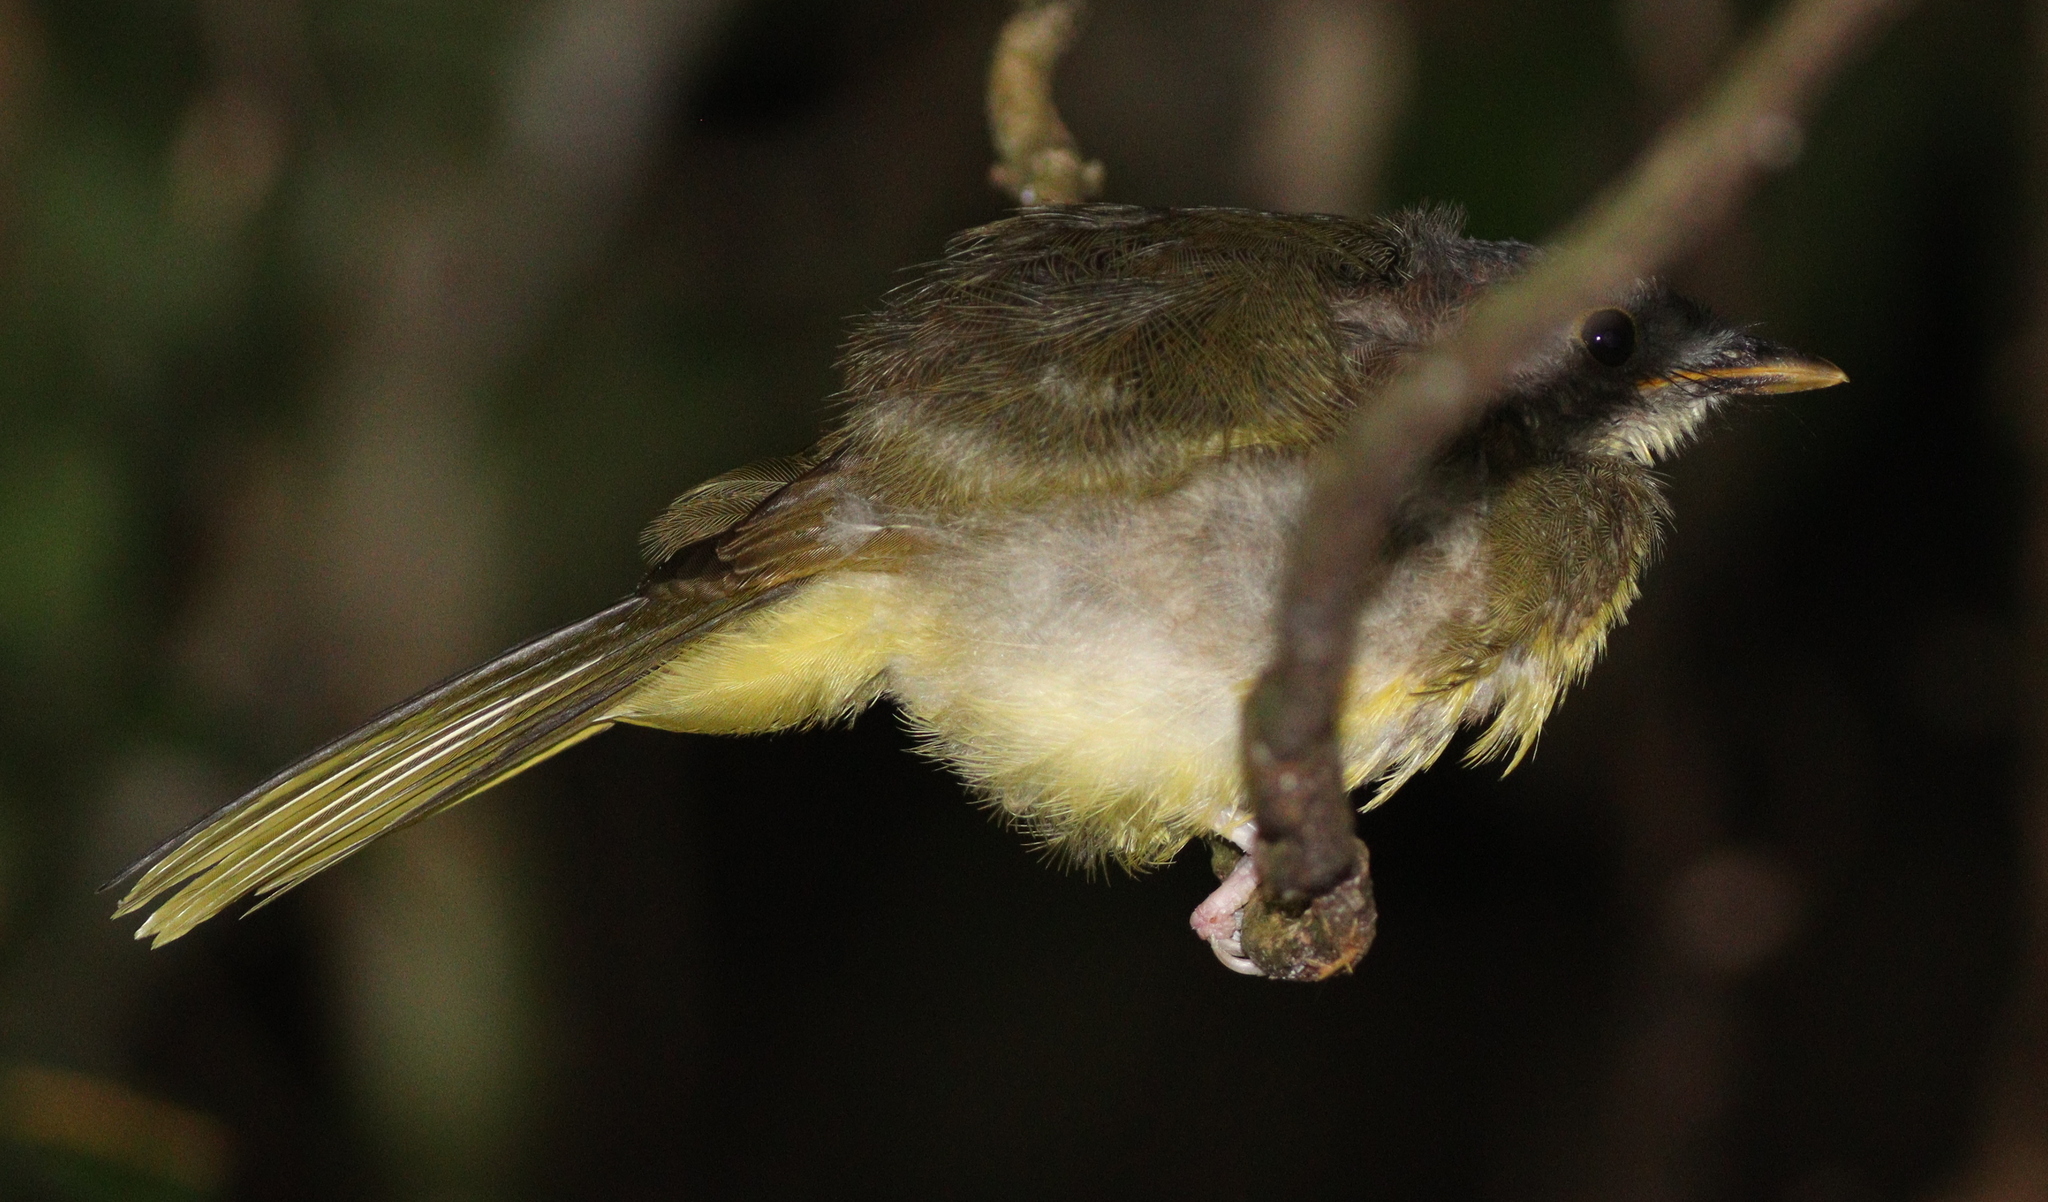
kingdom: Animalia
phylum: Chordata
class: Aves
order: Passeriformes
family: Pycnonotidae
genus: Bleda
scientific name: Bleda canicapillus
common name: Grey-headed bristlebill
